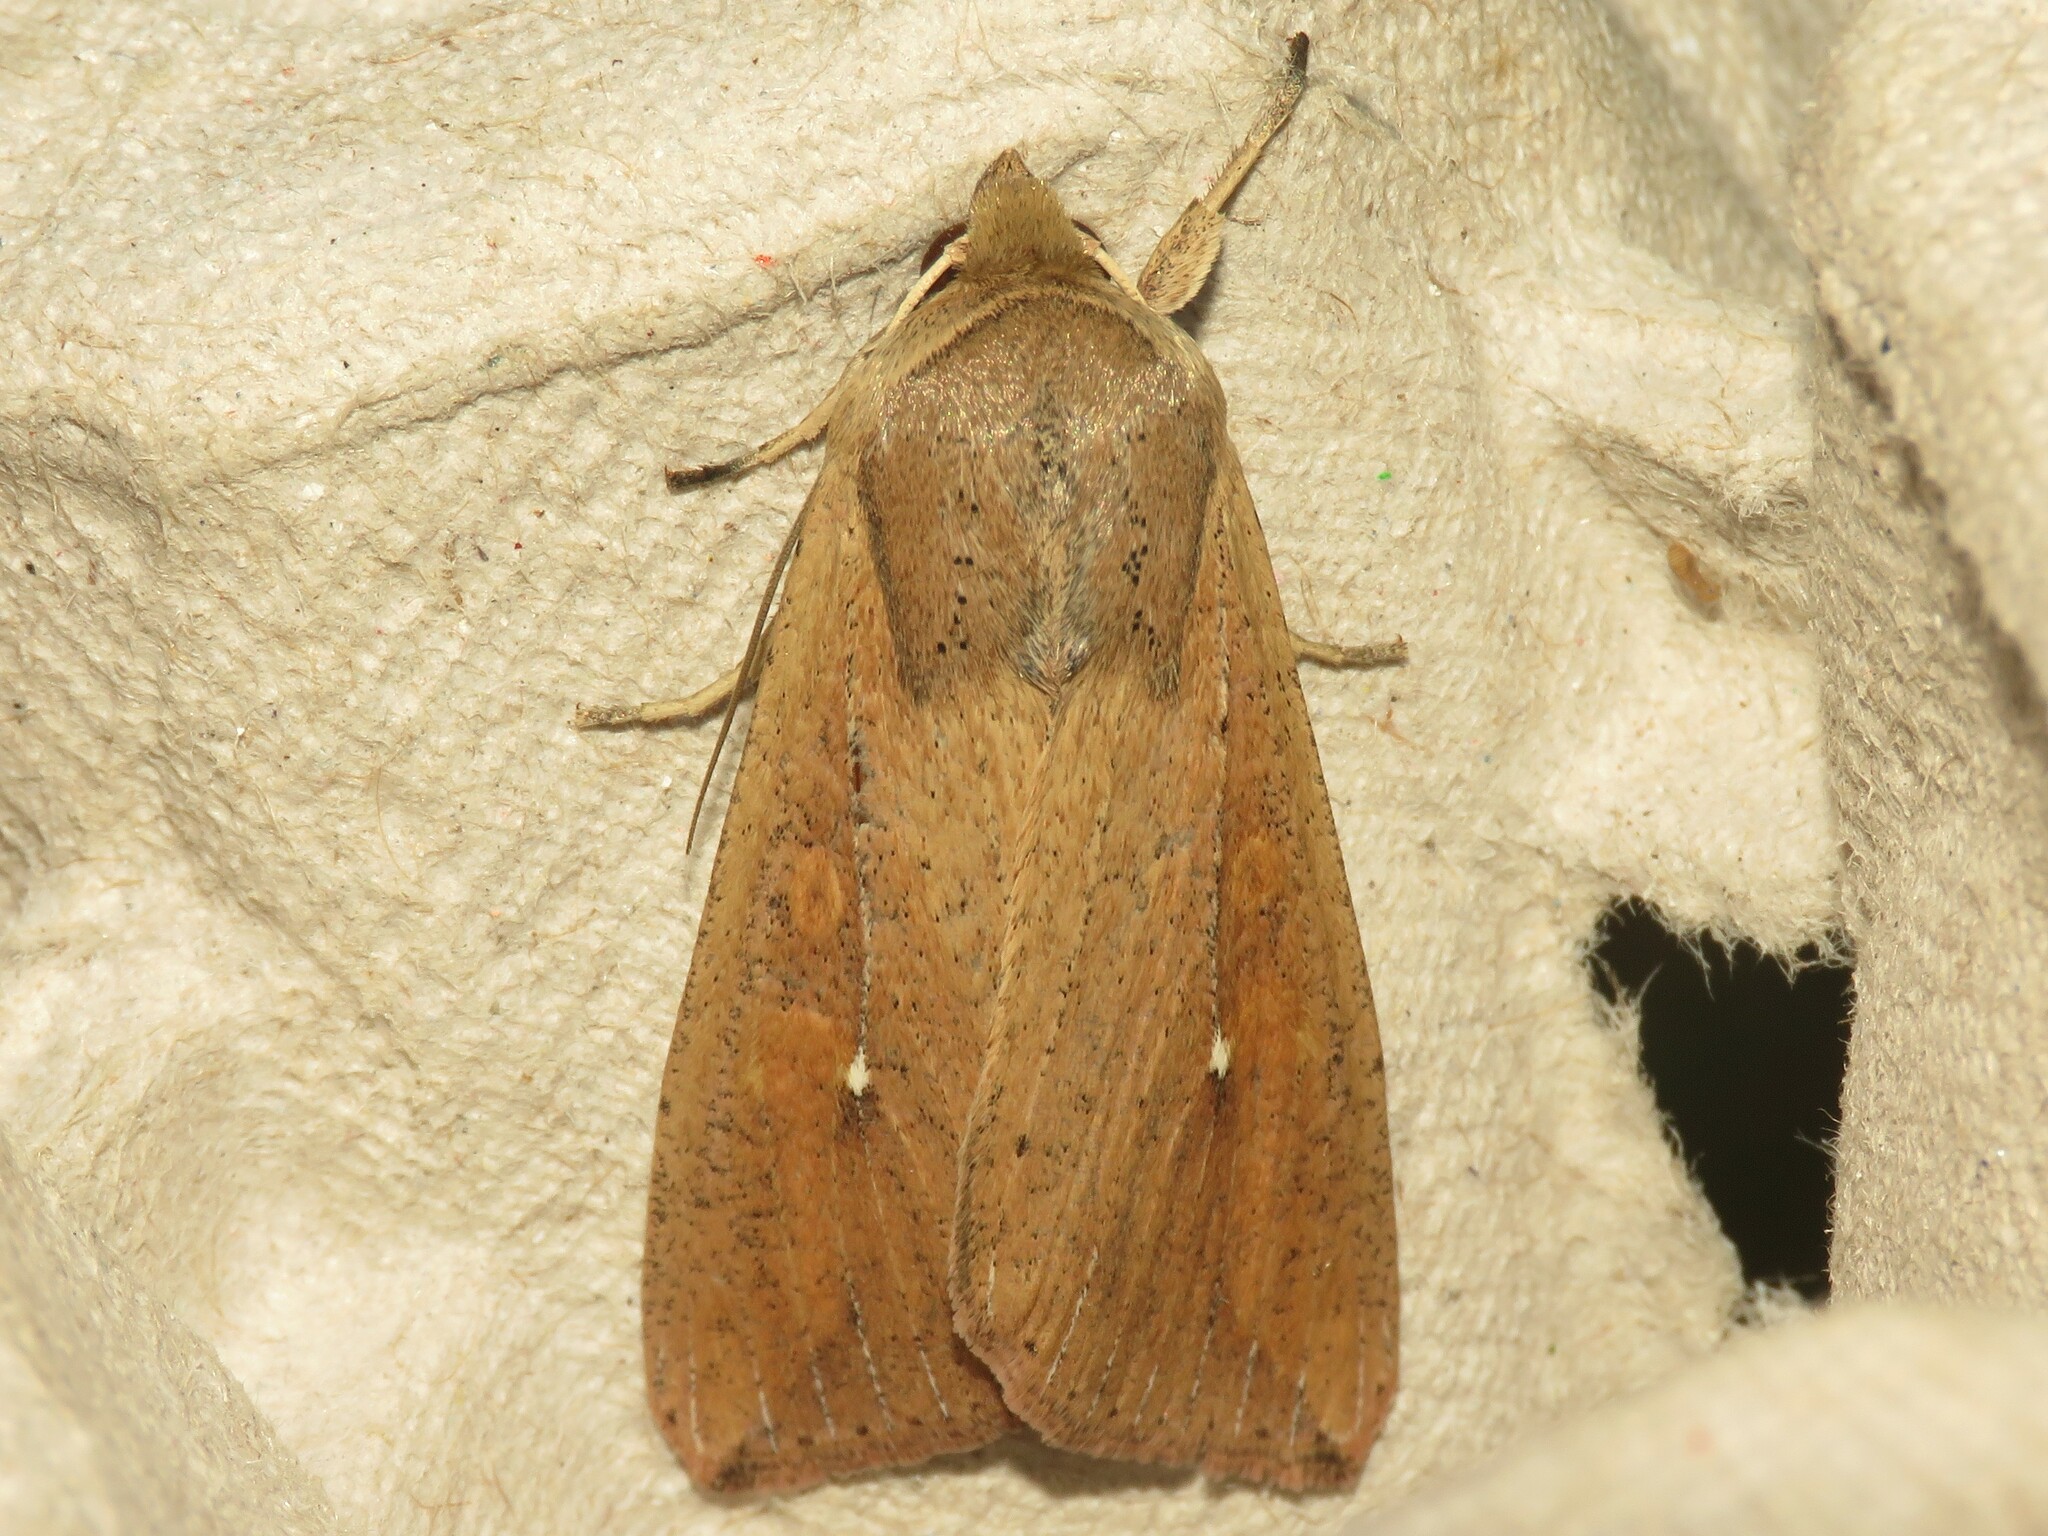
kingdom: Animalia
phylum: Arthropoda
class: Insecta
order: Lepidoptera
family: Noctuidae
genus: Mythimna
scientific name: Mythimna unipuncta
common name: White-speck
